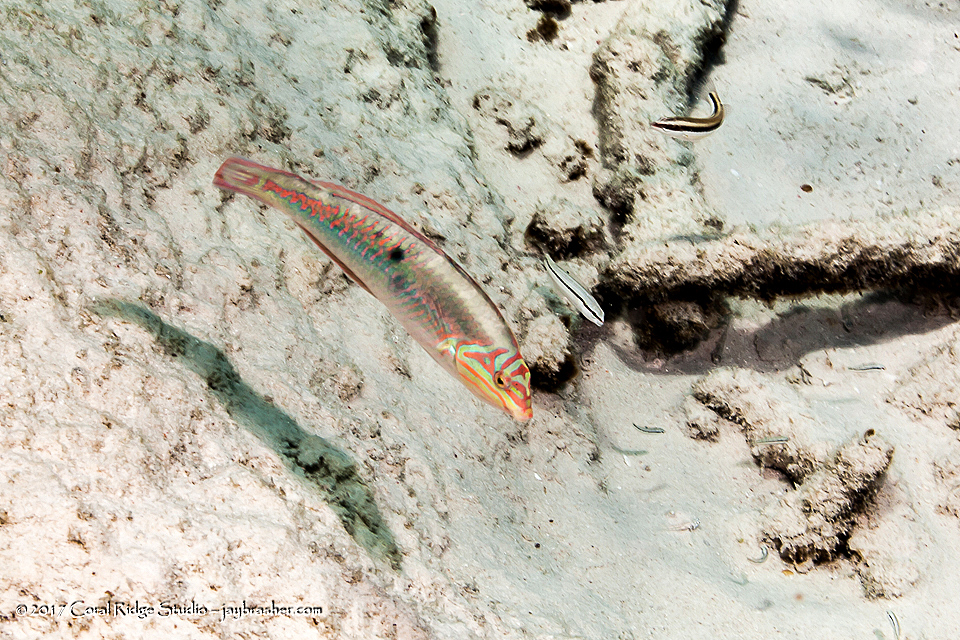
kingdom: Animalia
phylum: Chordata
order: Perciformes
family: Labridae
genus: Halichoeres
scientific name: Halichoeres maculipinna
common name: Clown wrasse
